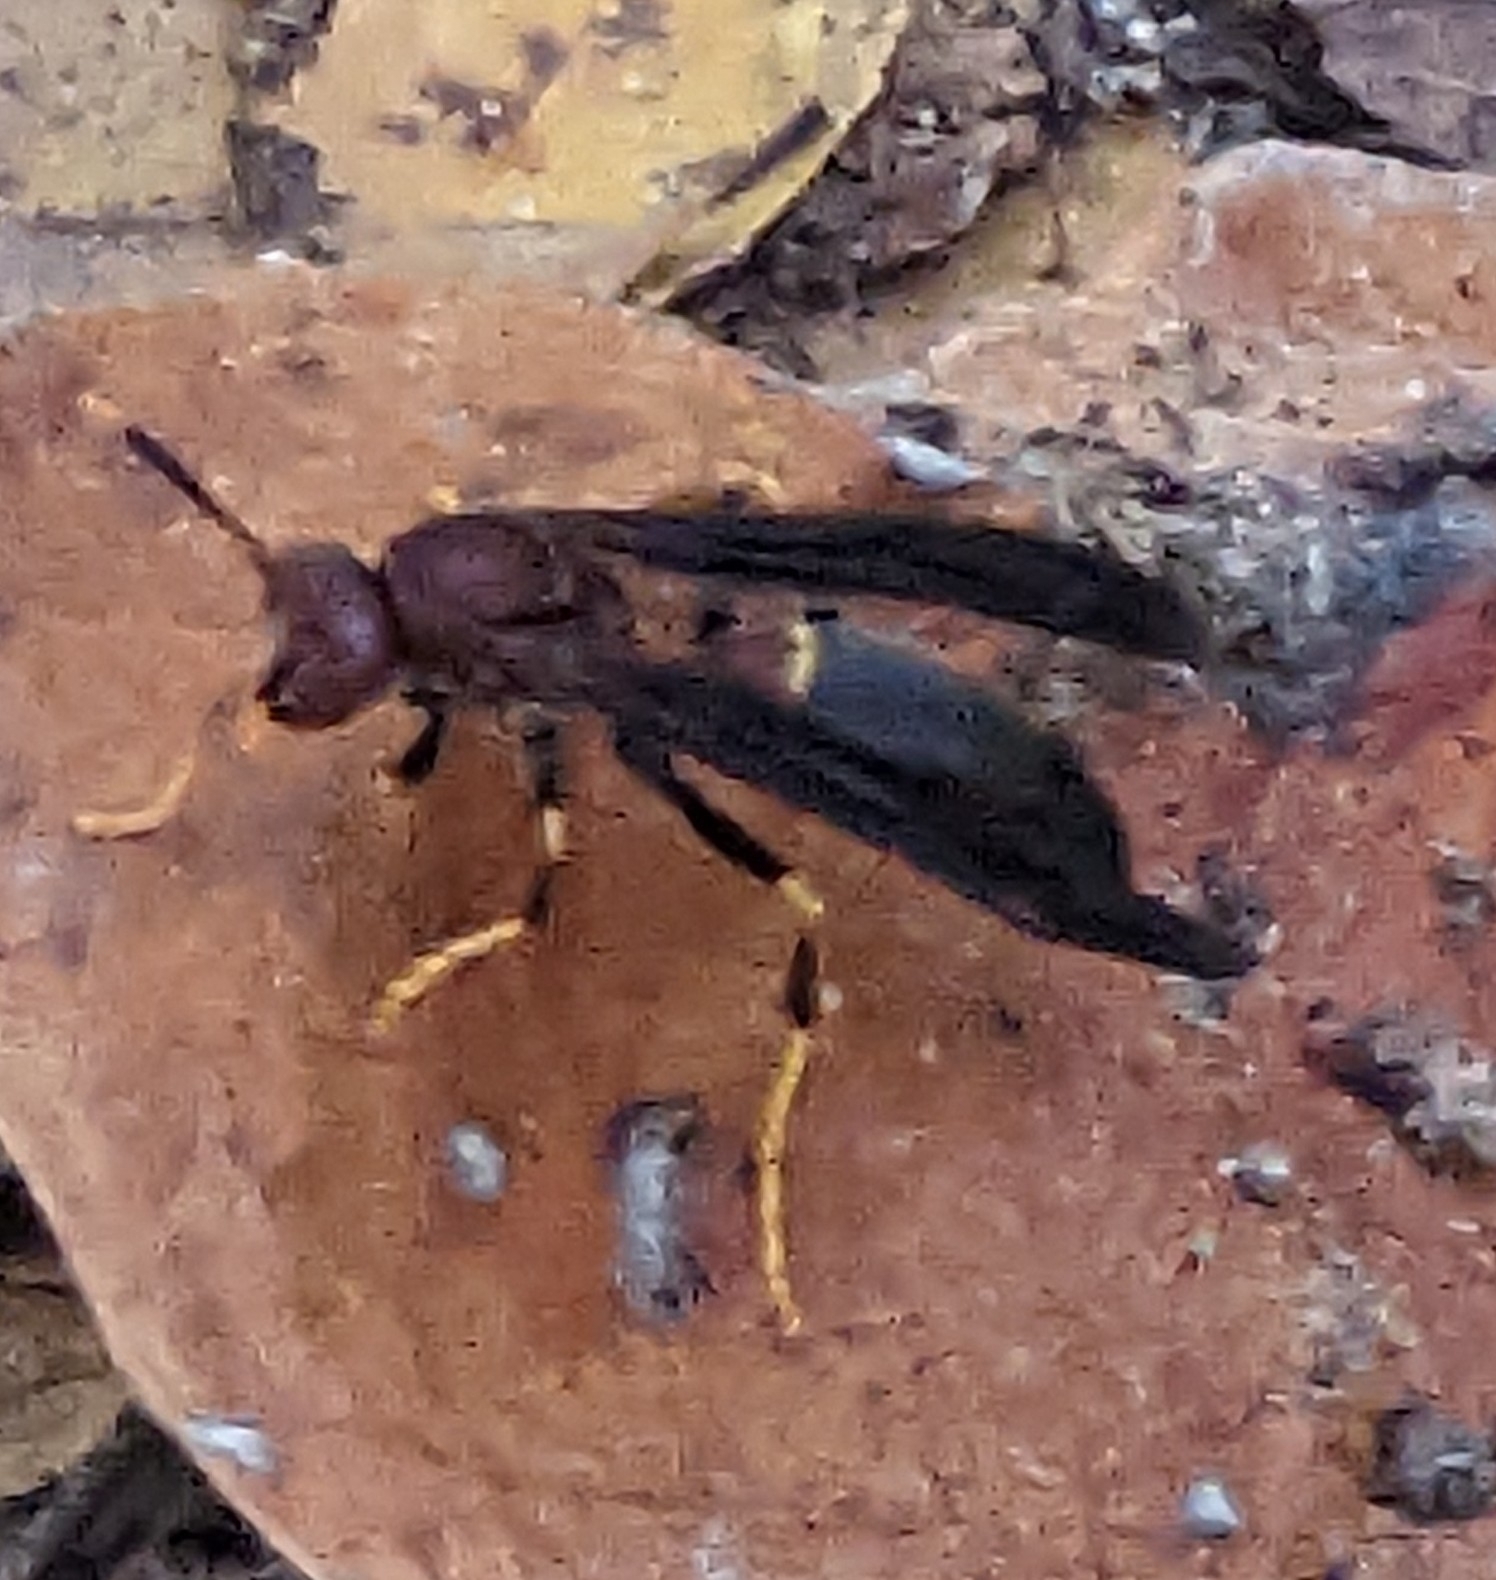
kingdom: Animalia
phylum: Arthropoda
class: Insecta
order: Hymenoptera
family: Eumenidae
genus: Polistes
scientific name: Polistes annularis
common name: Ringed paper wasp
